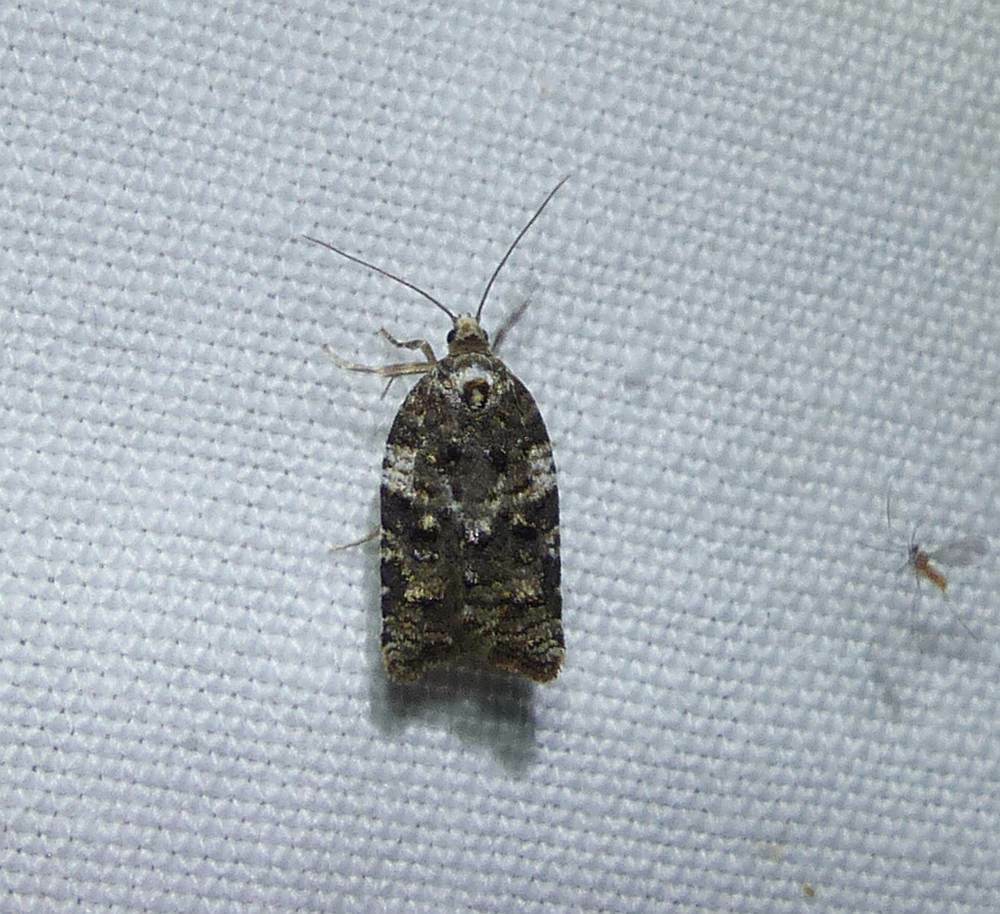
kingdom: Animalia
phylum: Arthropoda
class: Insecta
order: Lepidoptera
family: Tortricidae
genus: Acleris
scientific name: Acleris variana
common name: Eastern black-headed budworm moth
